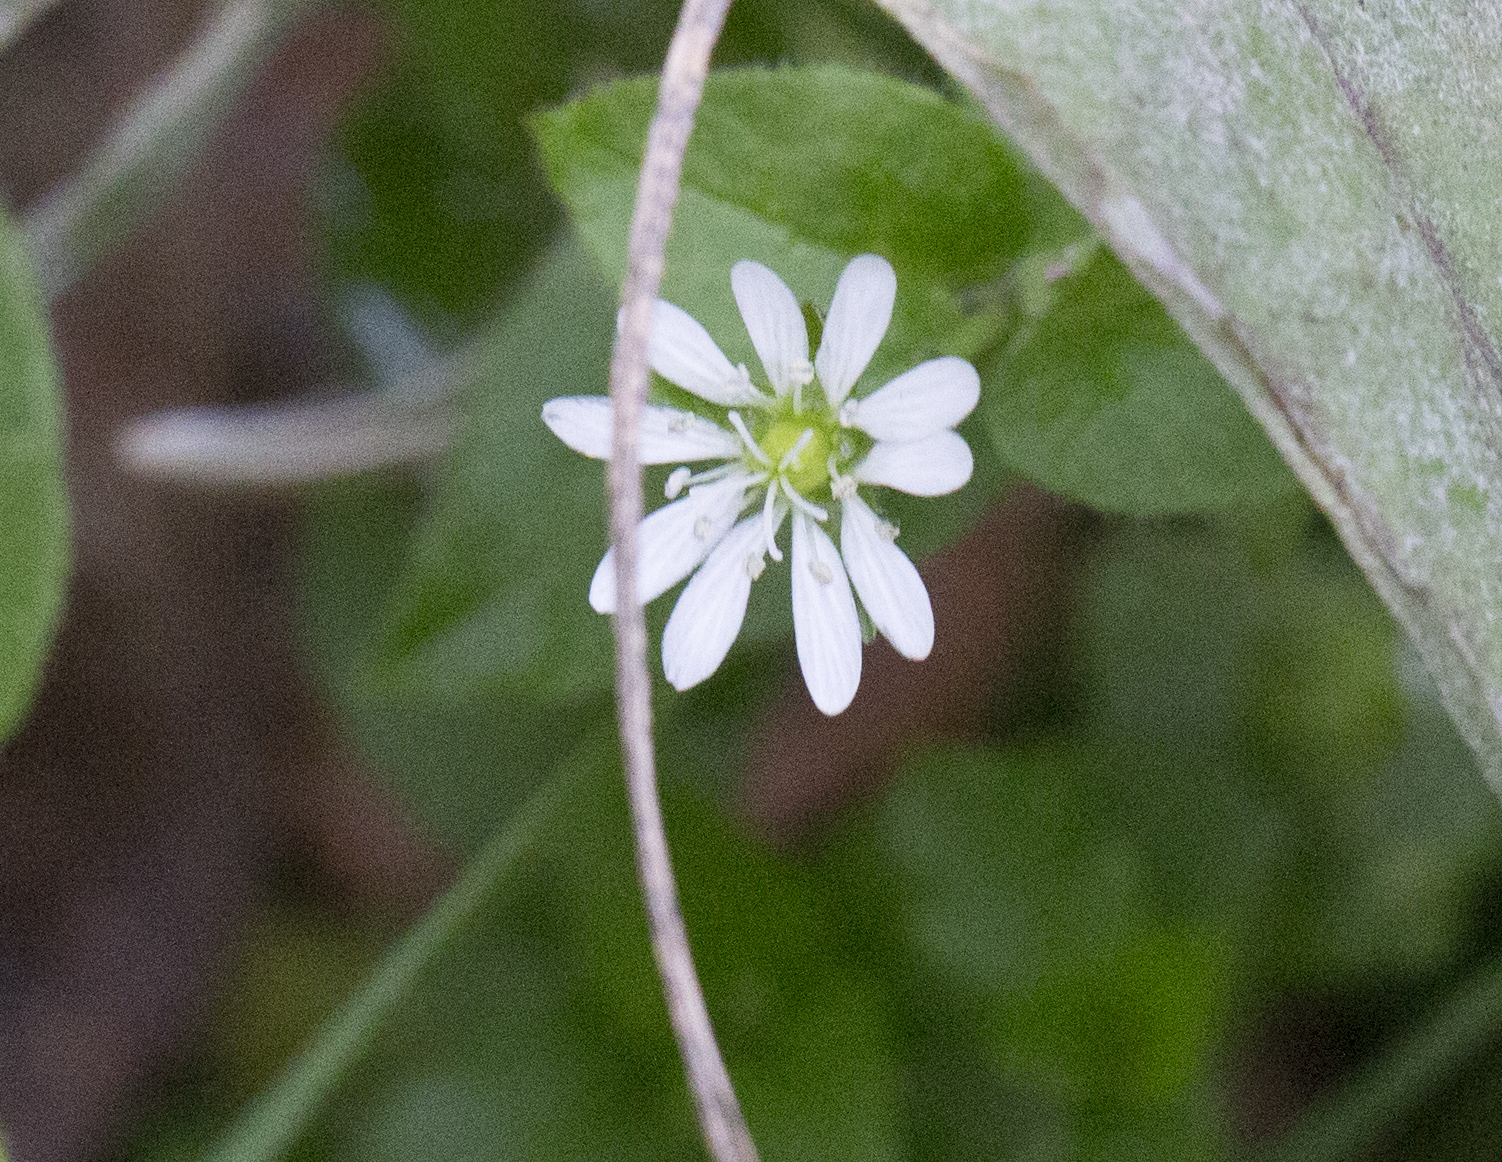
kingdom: Plantae
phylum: Tracheophyta
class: Magnoliopsida
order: Caryophyllales
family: Caryophyllaceae
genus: Stellaria
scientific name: Stellaria aquatica
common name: Water chickweed
